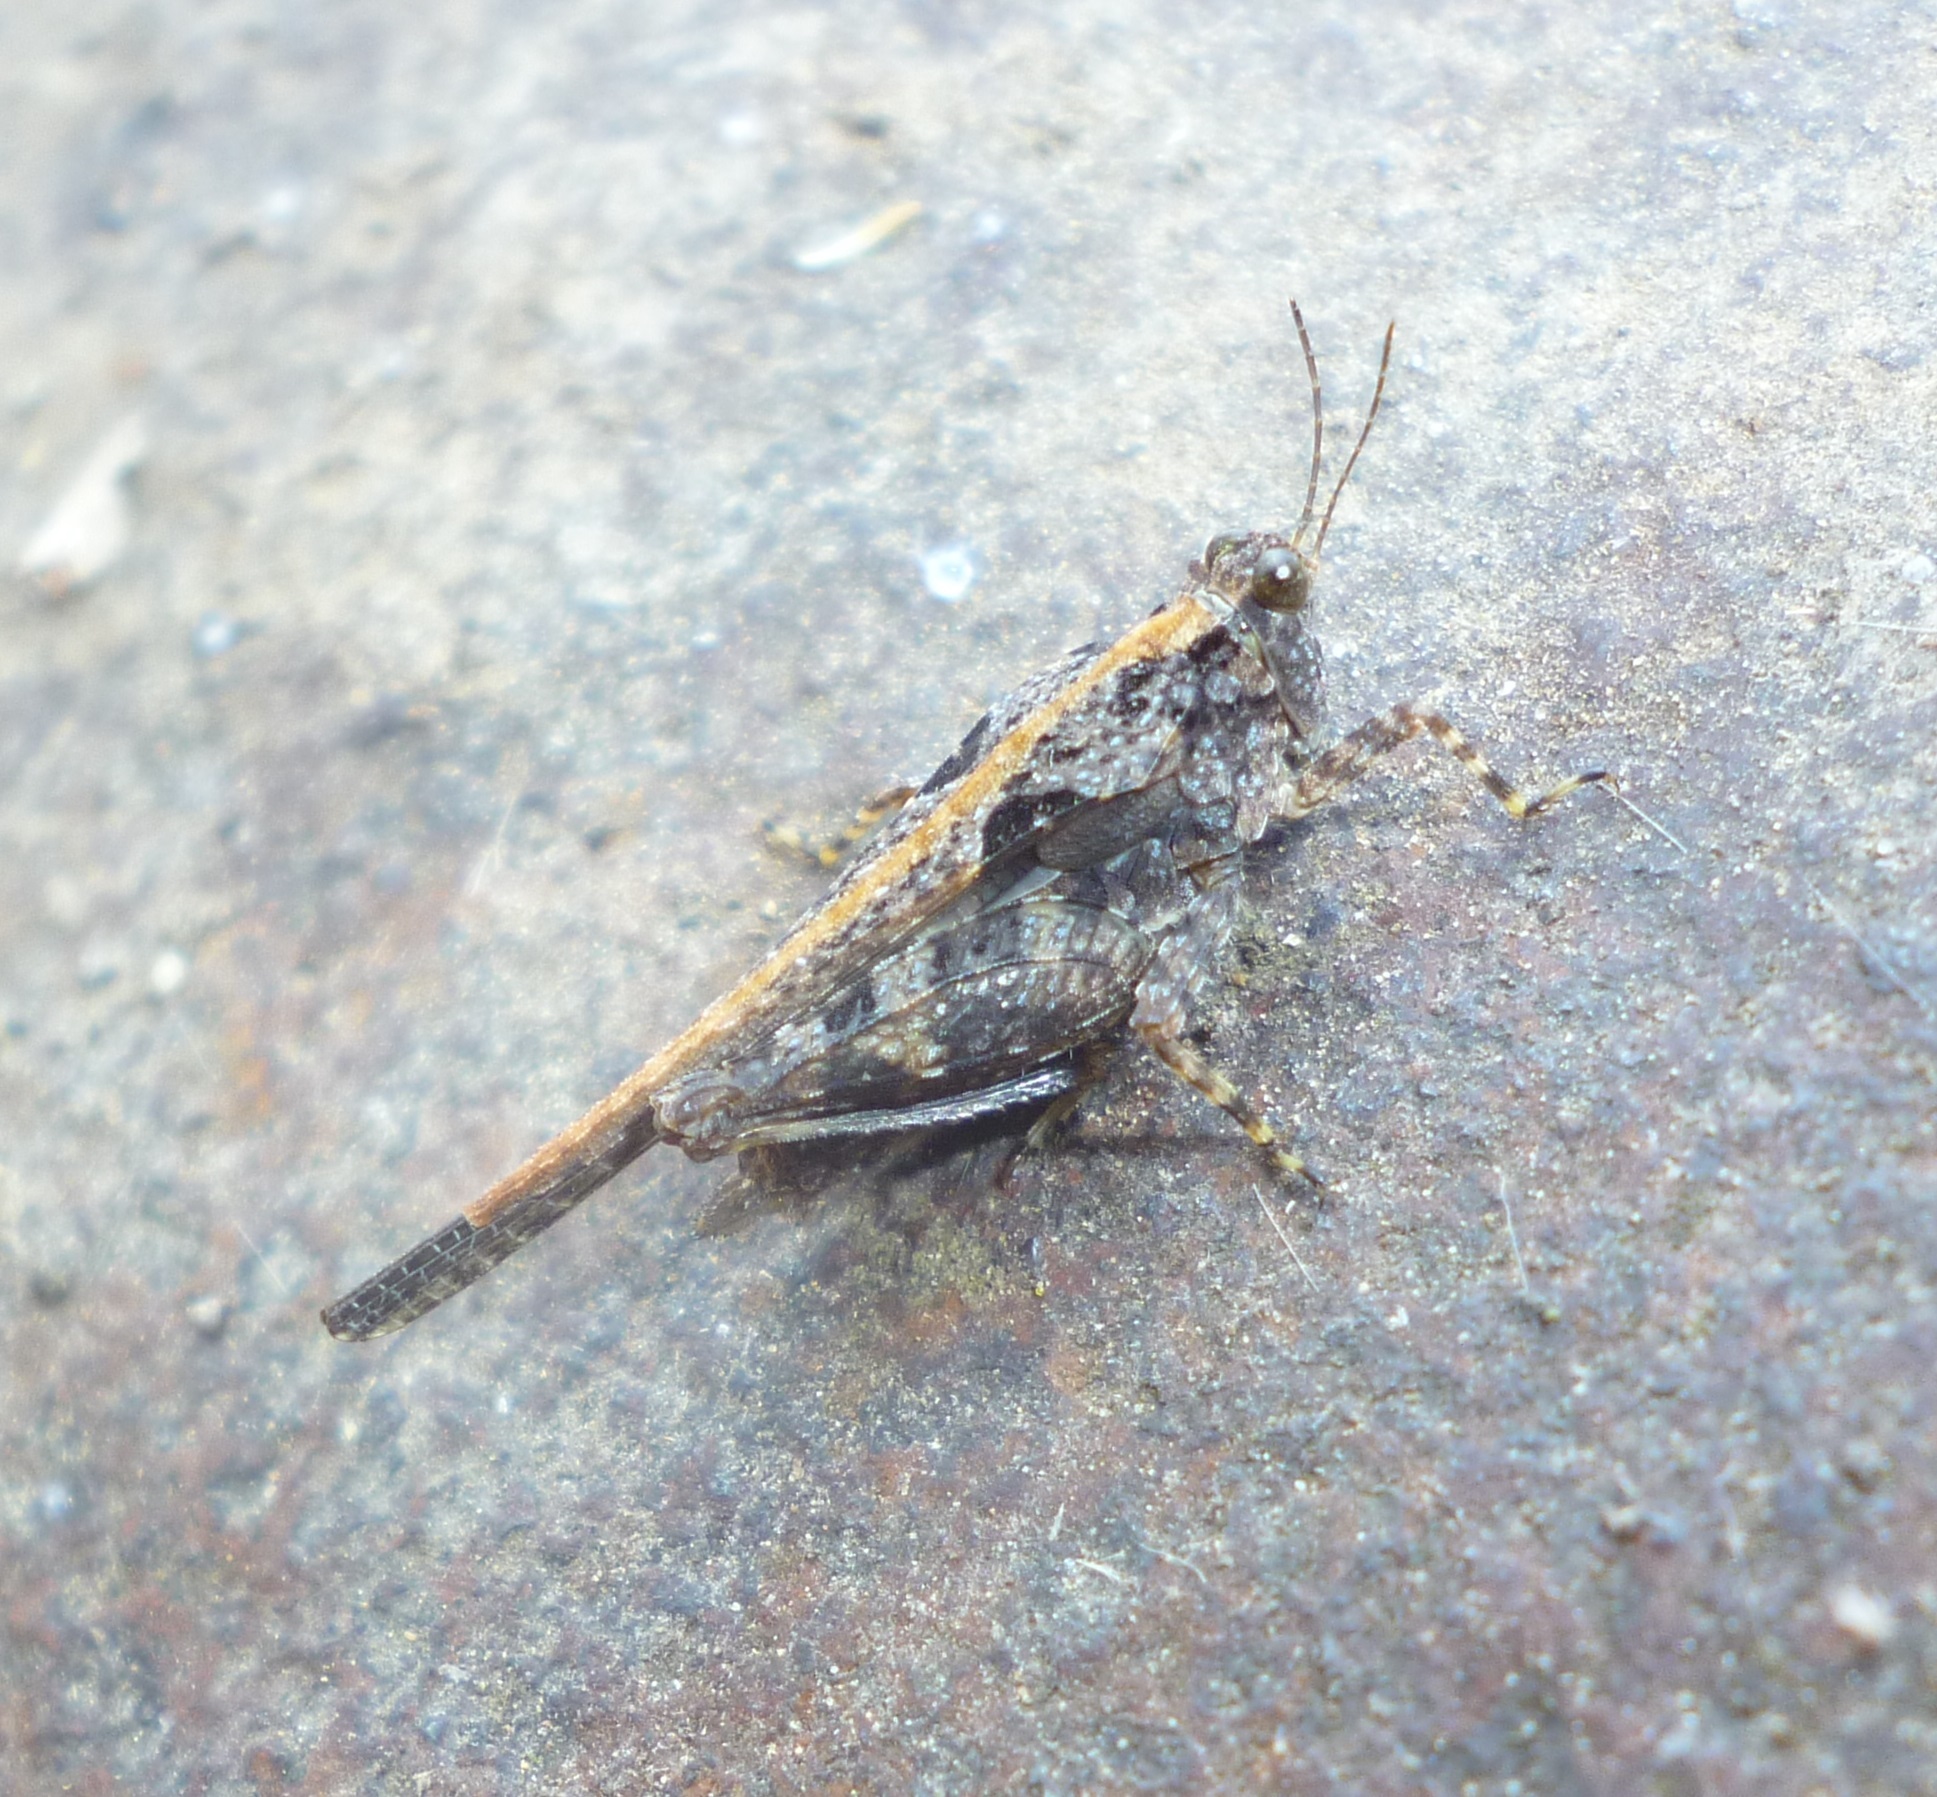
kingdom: Animalia
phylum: Arthropoda
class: Insecta
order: Orthoptera
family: Tetrigidae
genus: Paratettix
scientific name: Paratettix meridionalis
